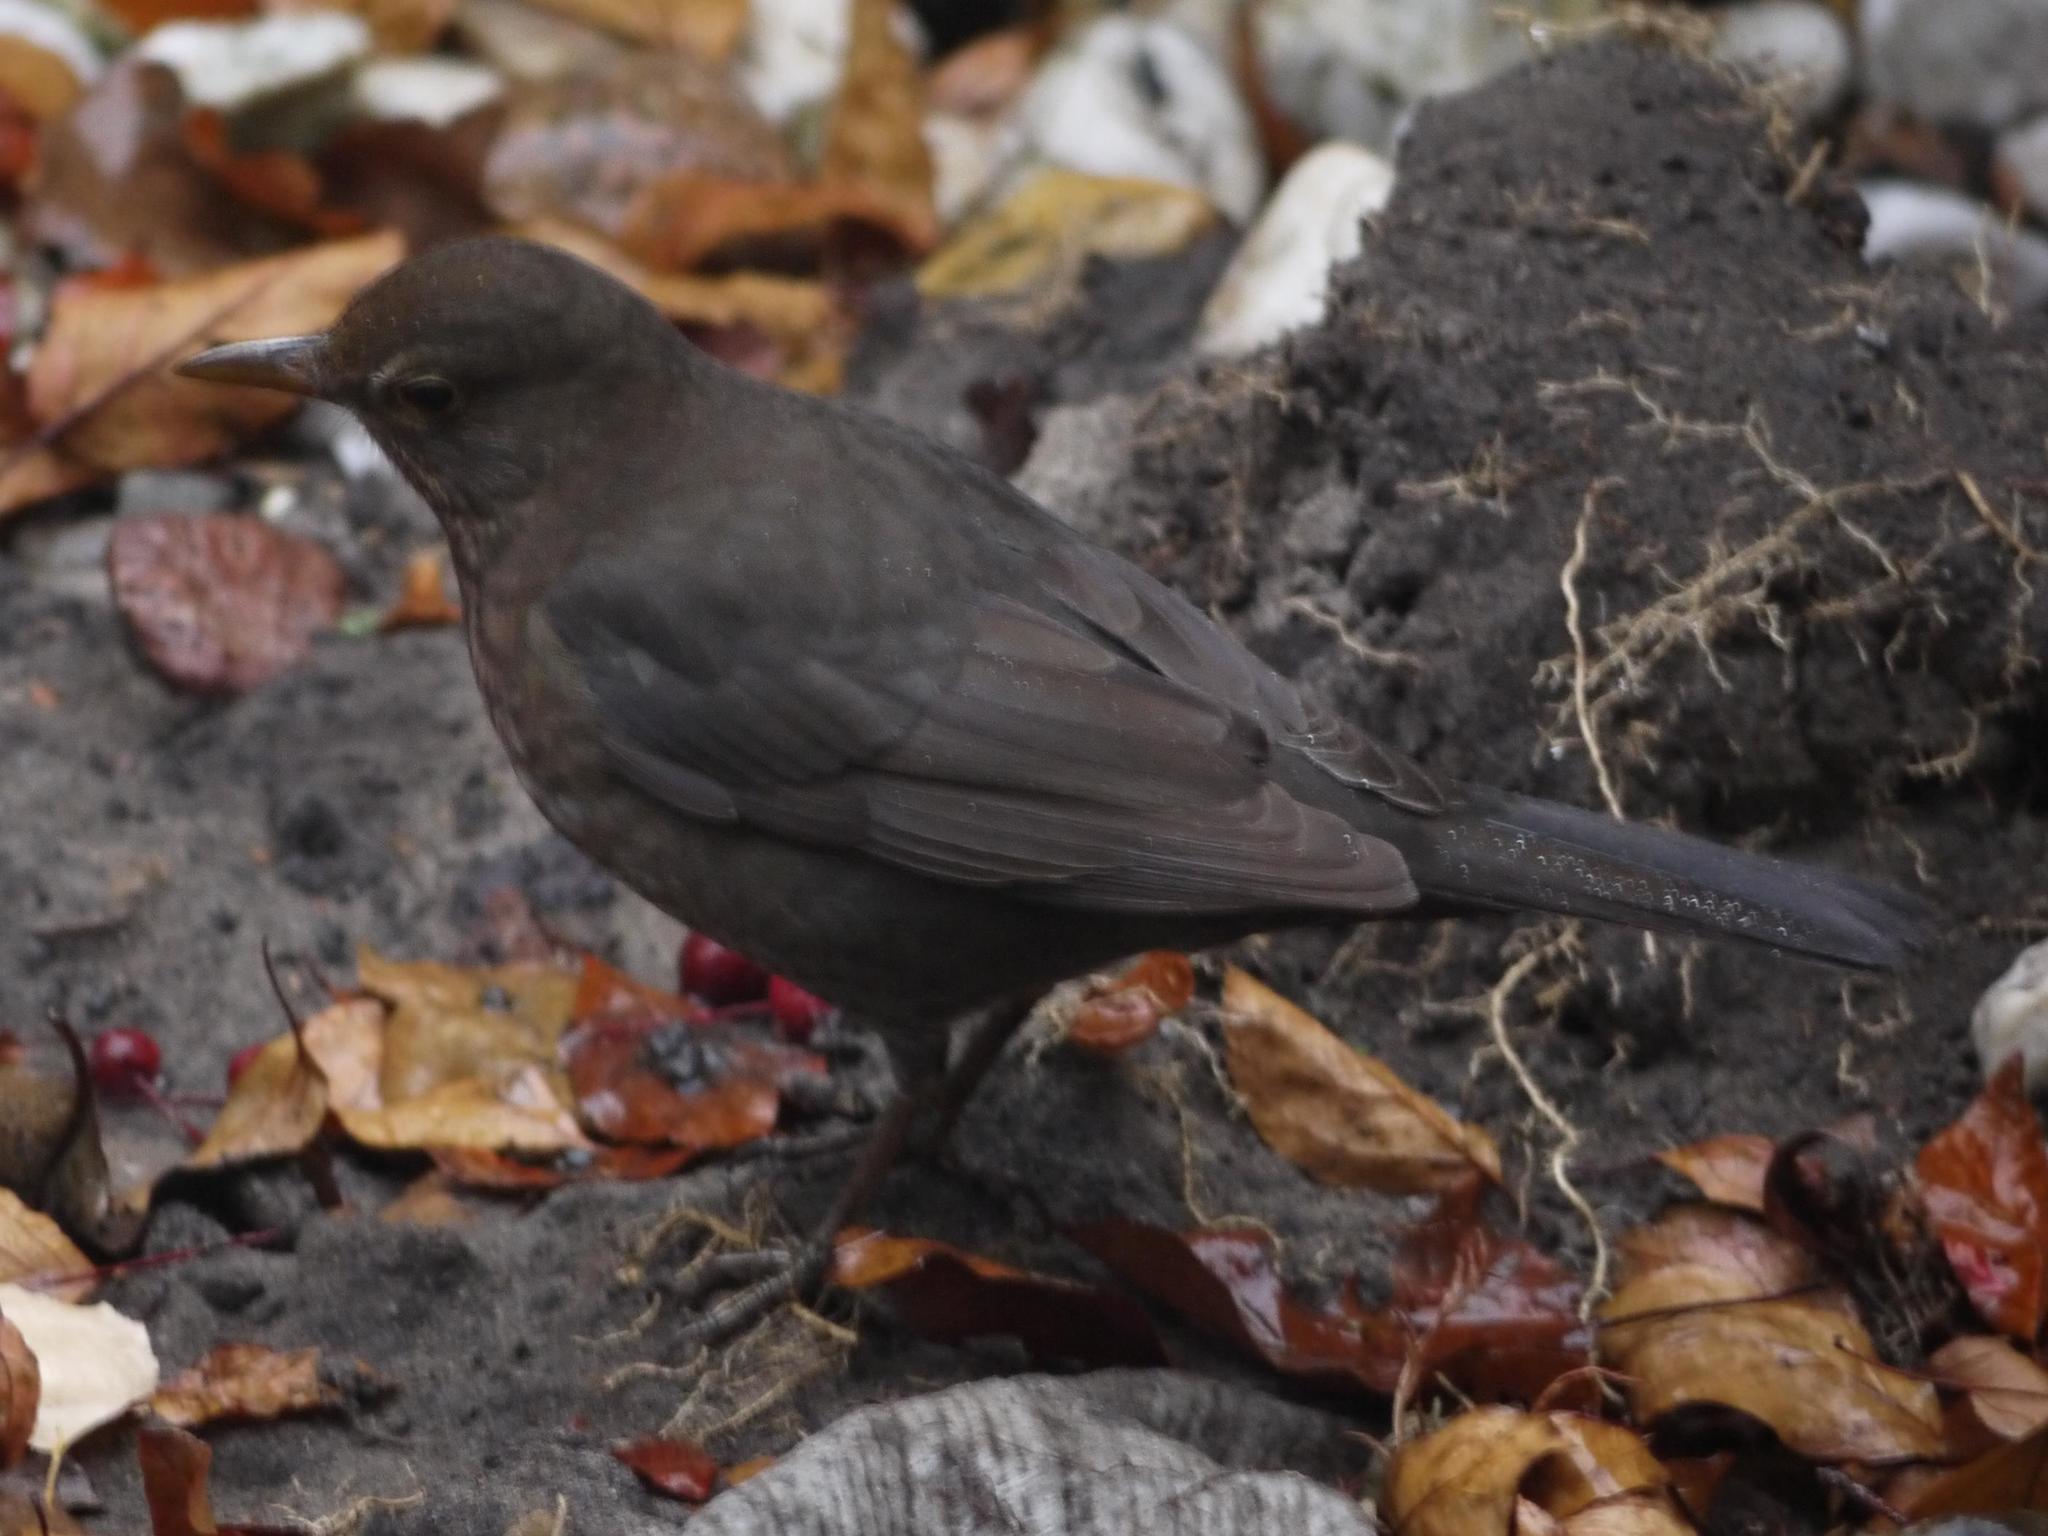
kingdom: Animalia
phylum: Chordata
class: Aves
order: Passeriformes
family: Turdidae
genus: Turdus
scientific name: Turdus merula
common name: Common blackbird
